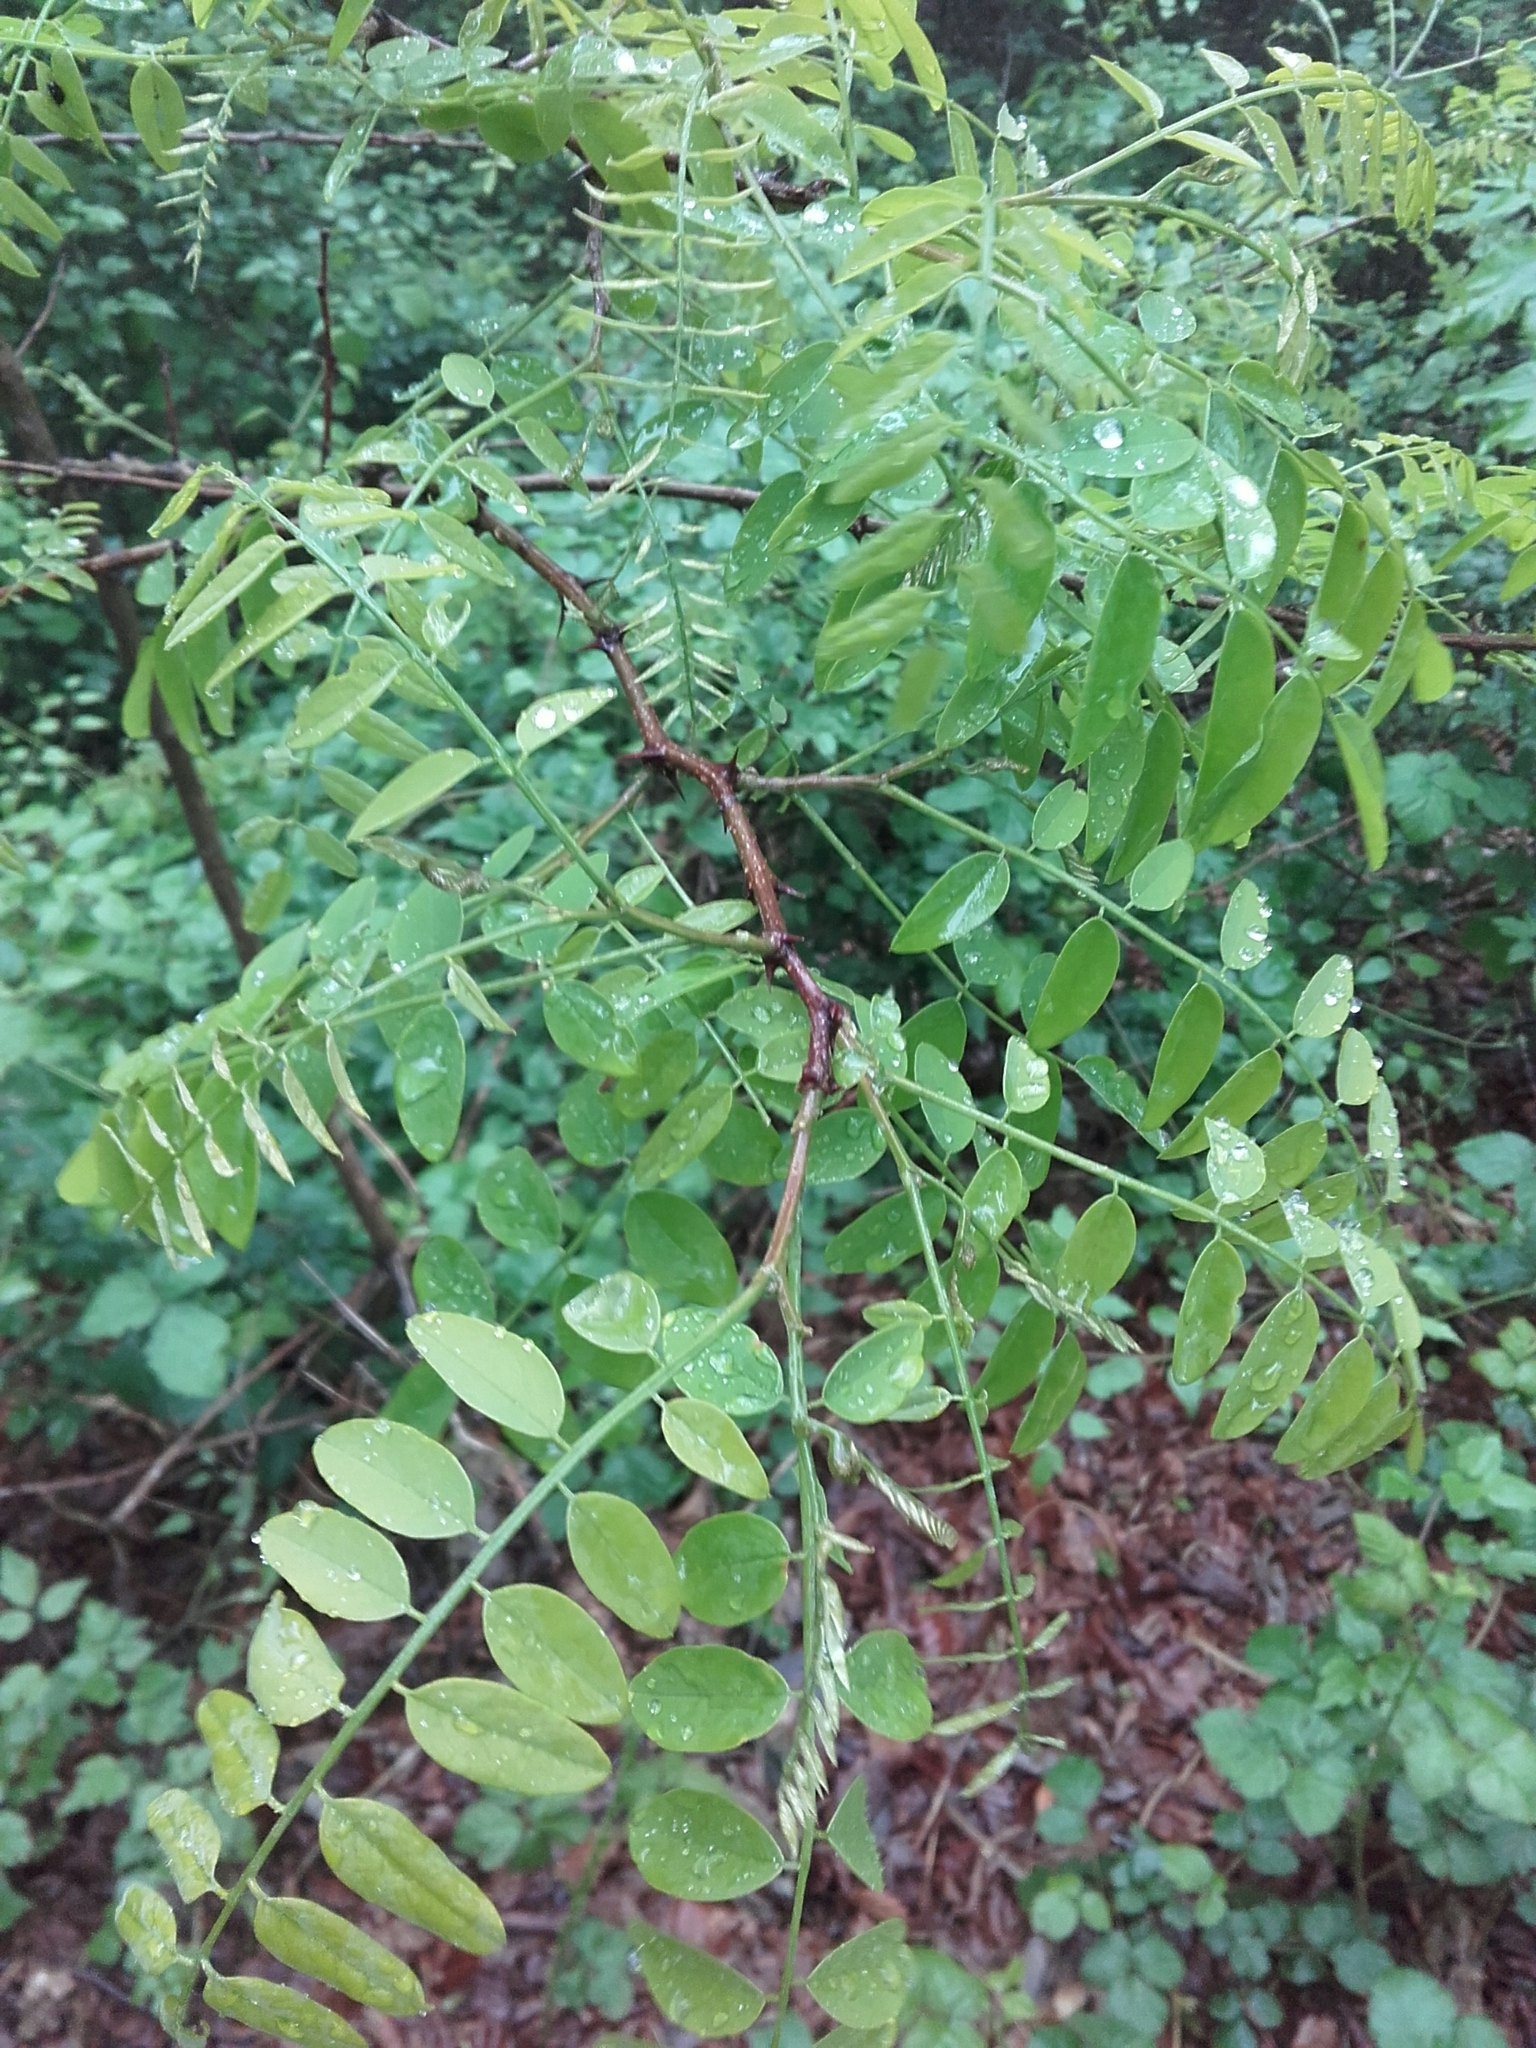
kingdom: Plantae
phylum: Tracheophyta
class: Magnoliopsida
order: Fabales
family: Fabaceae
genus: Robinia
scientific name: Robinia pseudoacacia
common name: Black locust
